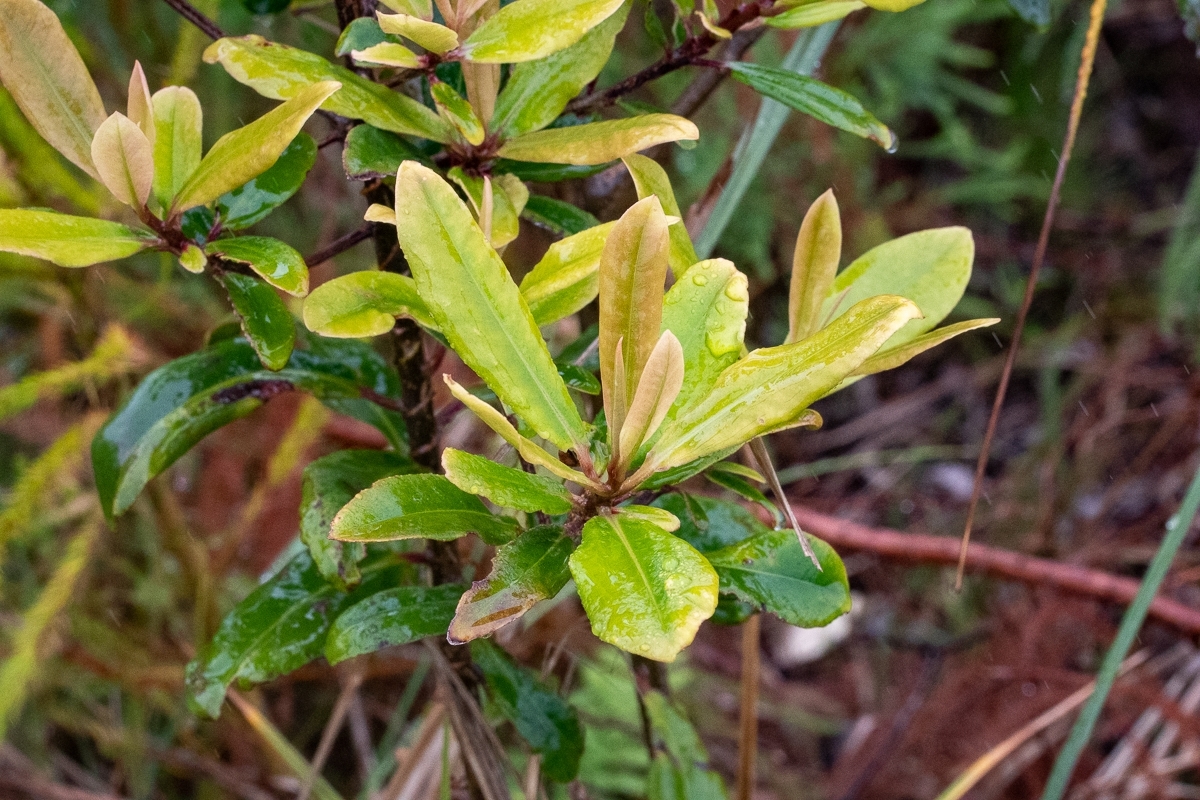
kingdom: Plantae
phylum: Tracheophyta
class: Magnoliopsida
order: Ericales
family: Primulaceae
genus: Myrsine
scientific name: Myrsine melanophloeos
